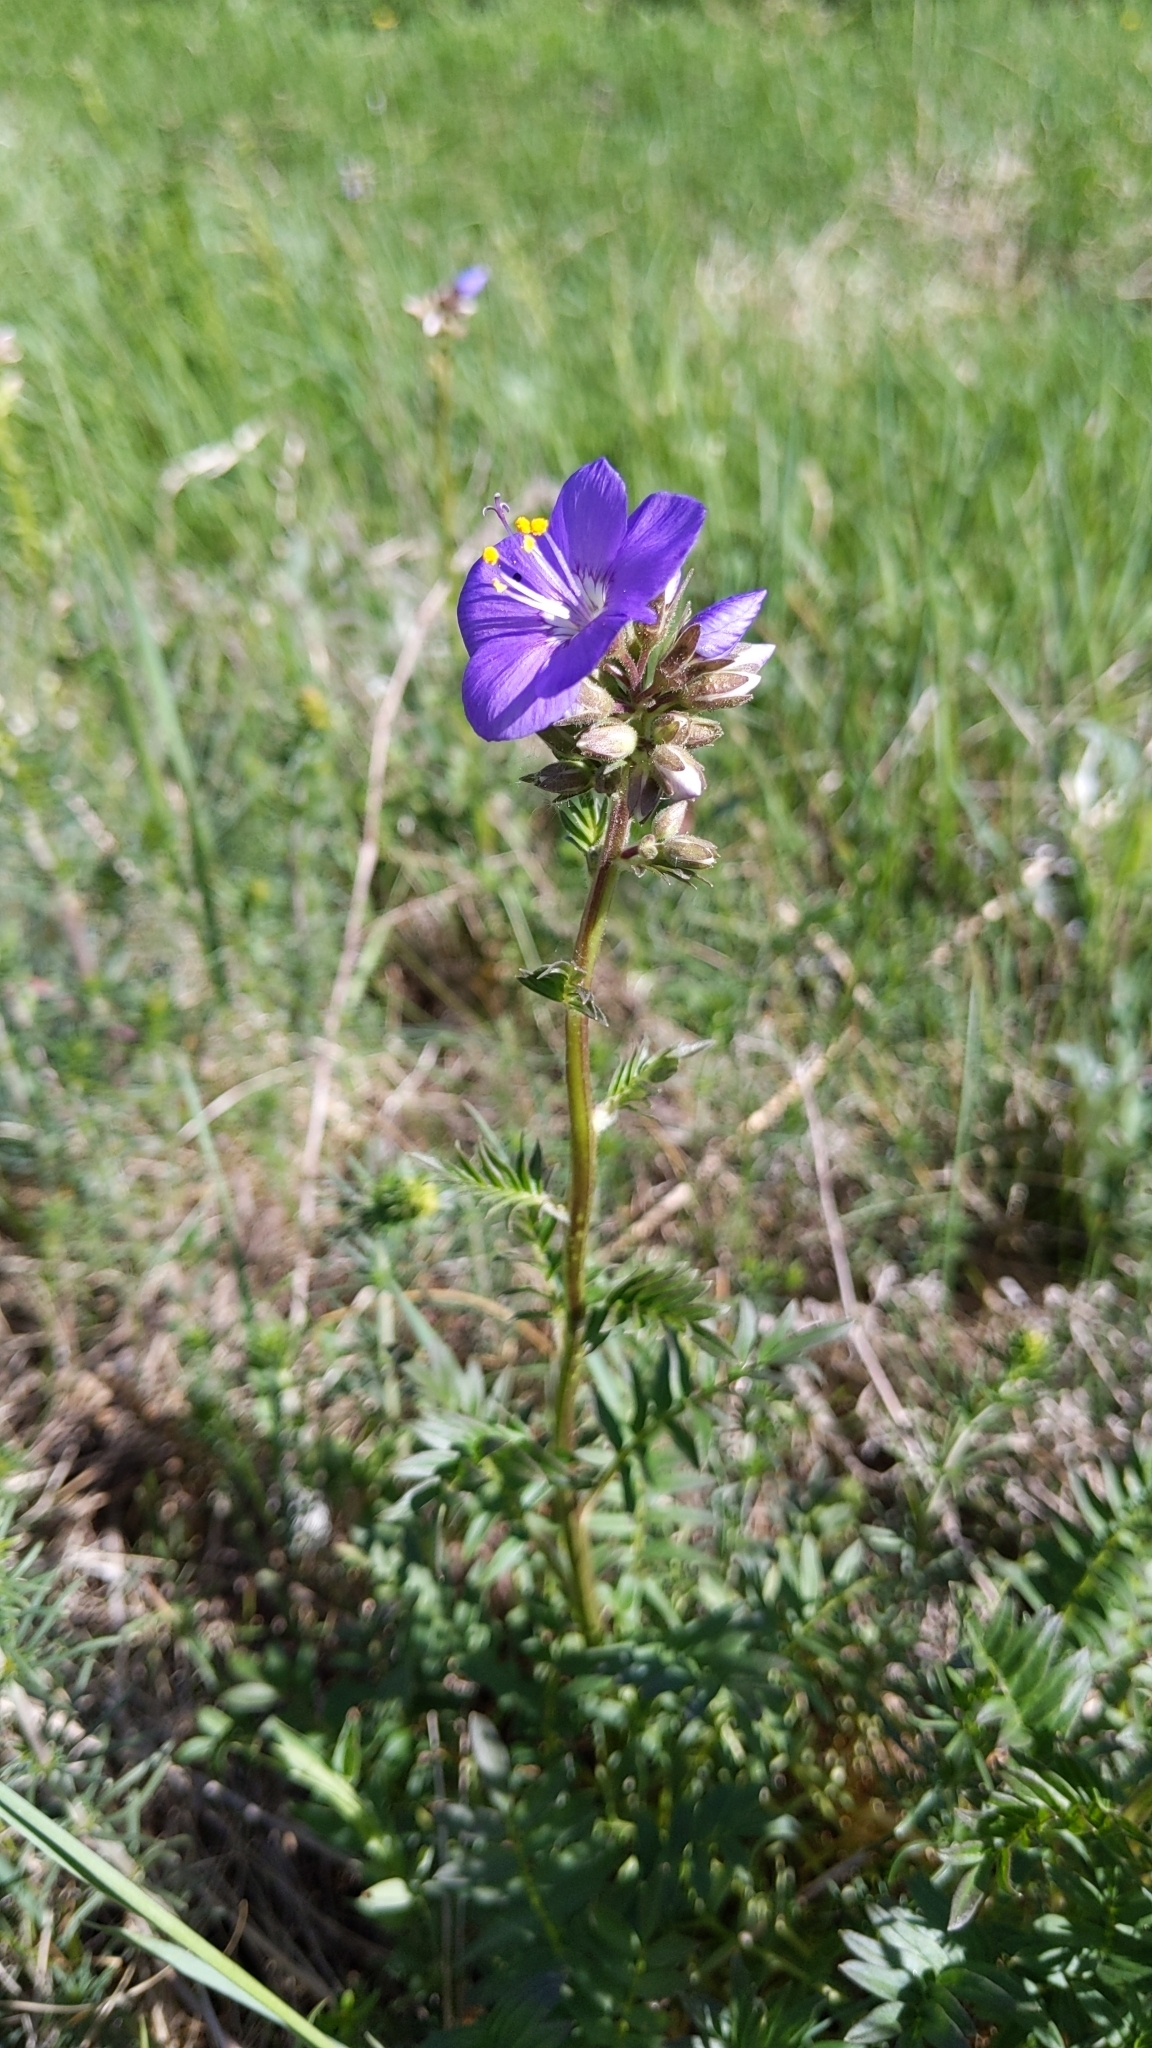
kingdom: Plantae
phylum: Tracheophyta
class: Magnoliopsida
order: Ericales
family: Polemoniaceae
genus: Polemonium
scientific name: Polemonium caeruleum
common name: Jacob's-ladder
